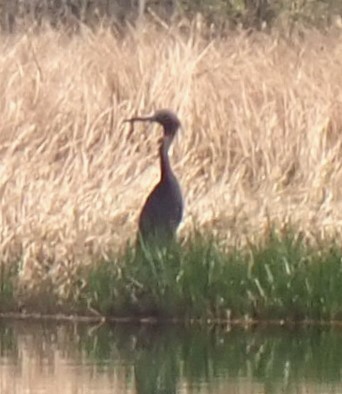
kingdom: Animalia
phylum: Chordata
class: Aves
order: Pelecaniformes
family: Ardeidae
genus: Egretta
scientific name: Egretta caerulea
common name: Little blue heron
